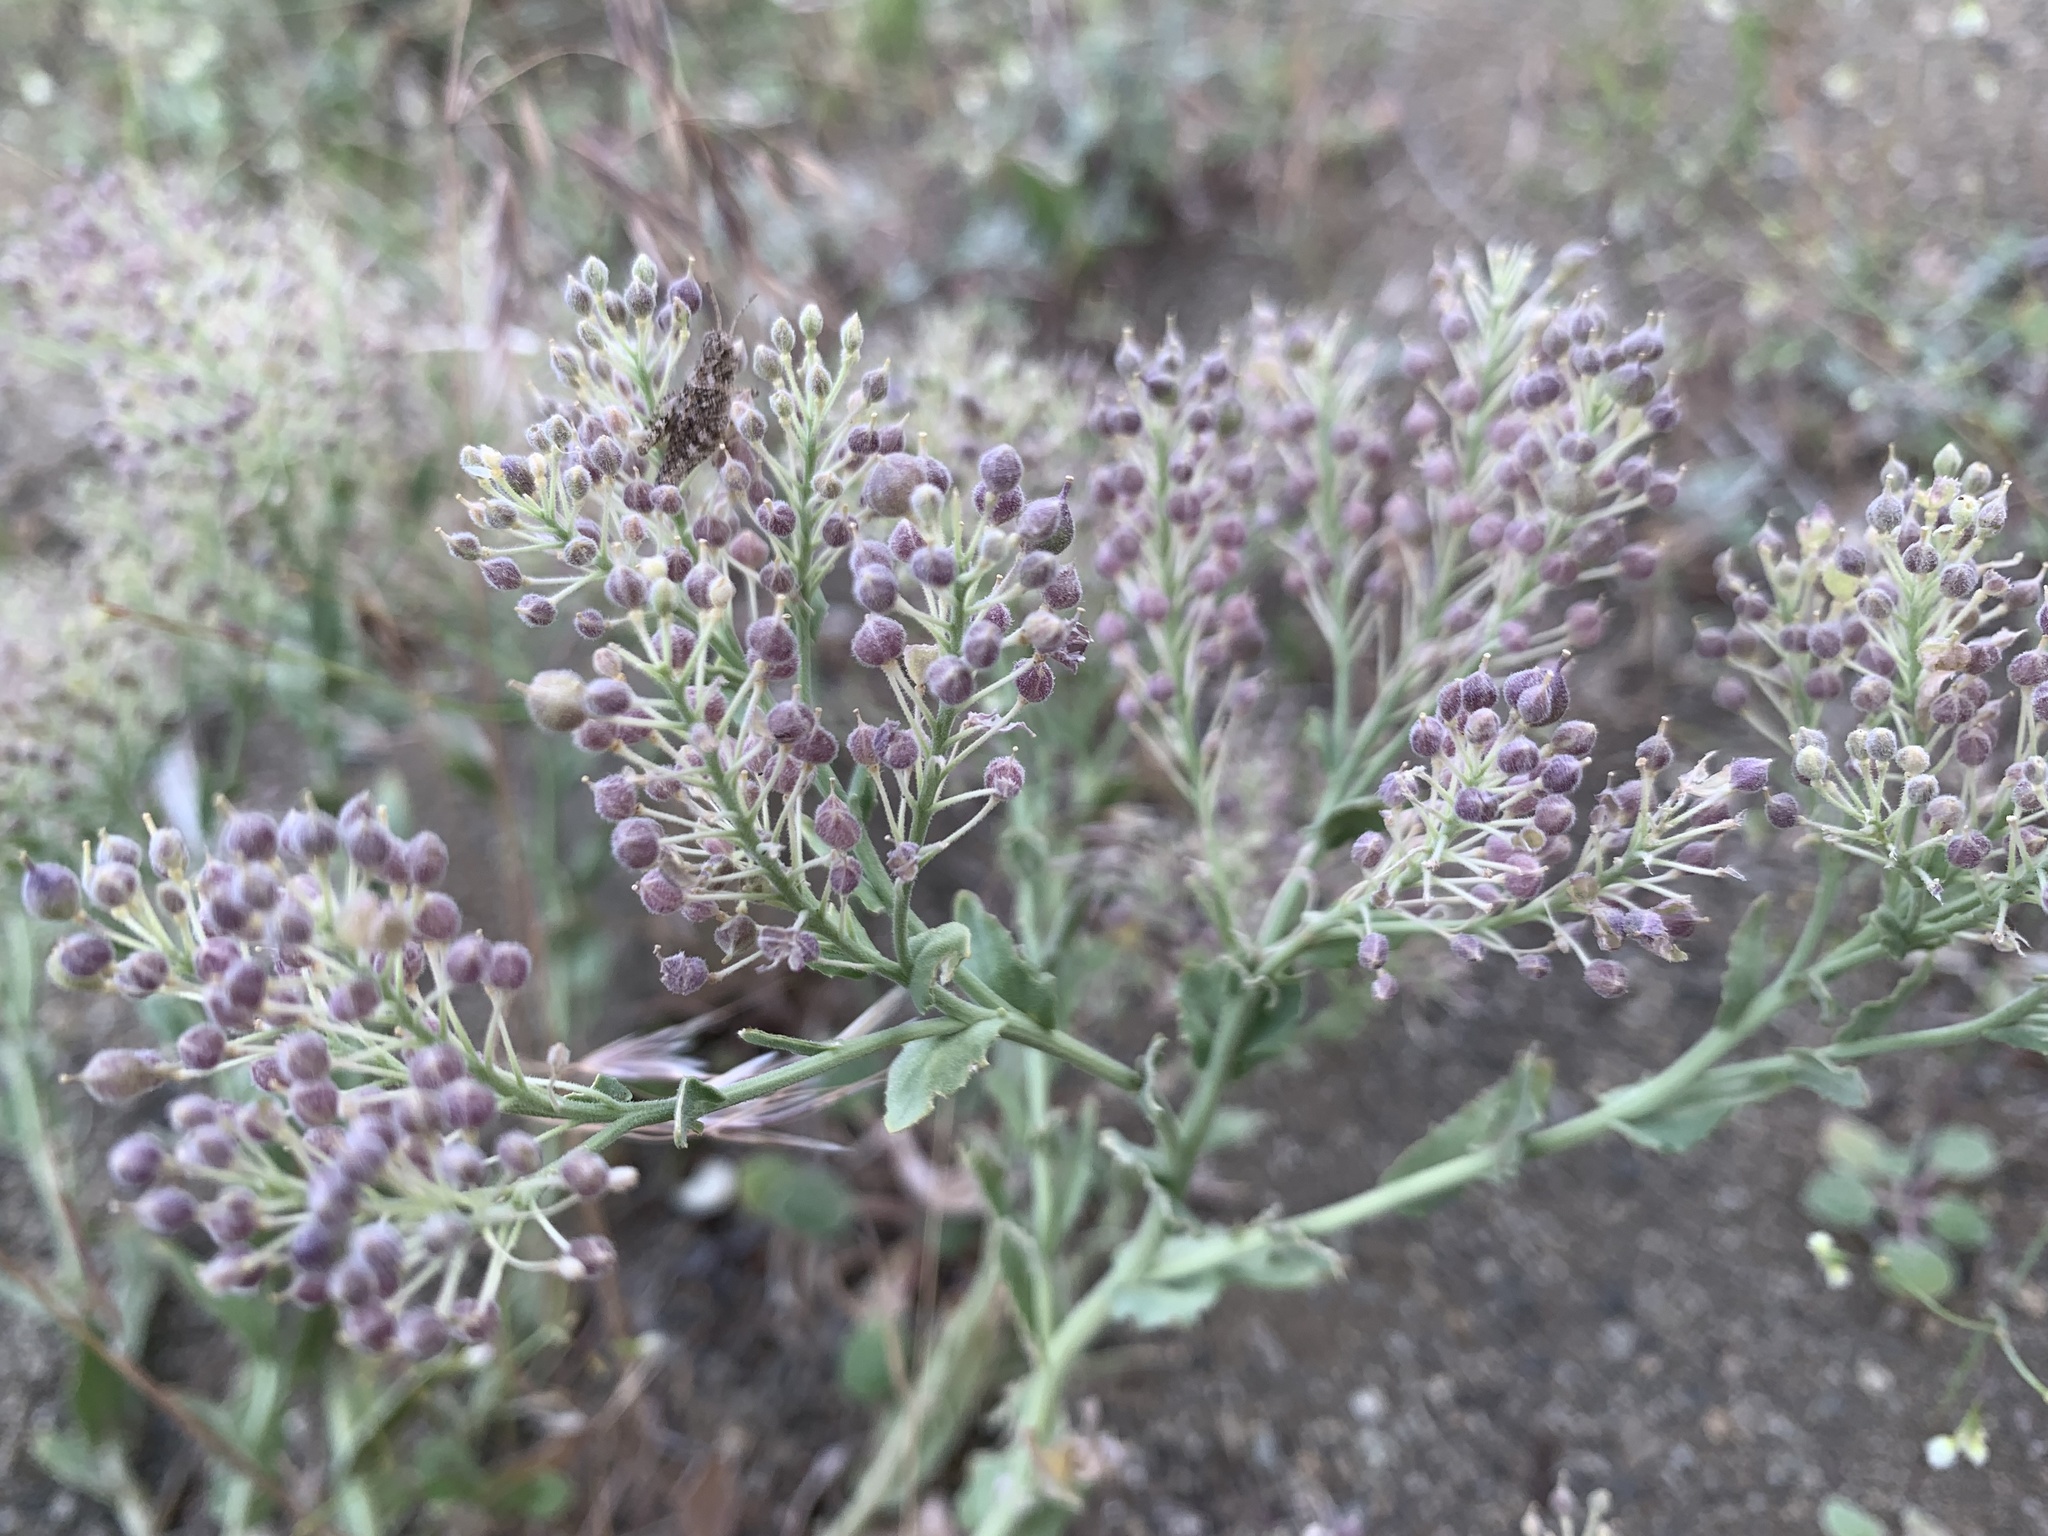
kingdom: Plantae
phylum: Tracheophyta
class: Magnoliopsida
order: Brassicales
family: Brassicaceae
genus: Lepidium
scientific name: Lepidium appelianum
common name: Hairy whitetop
